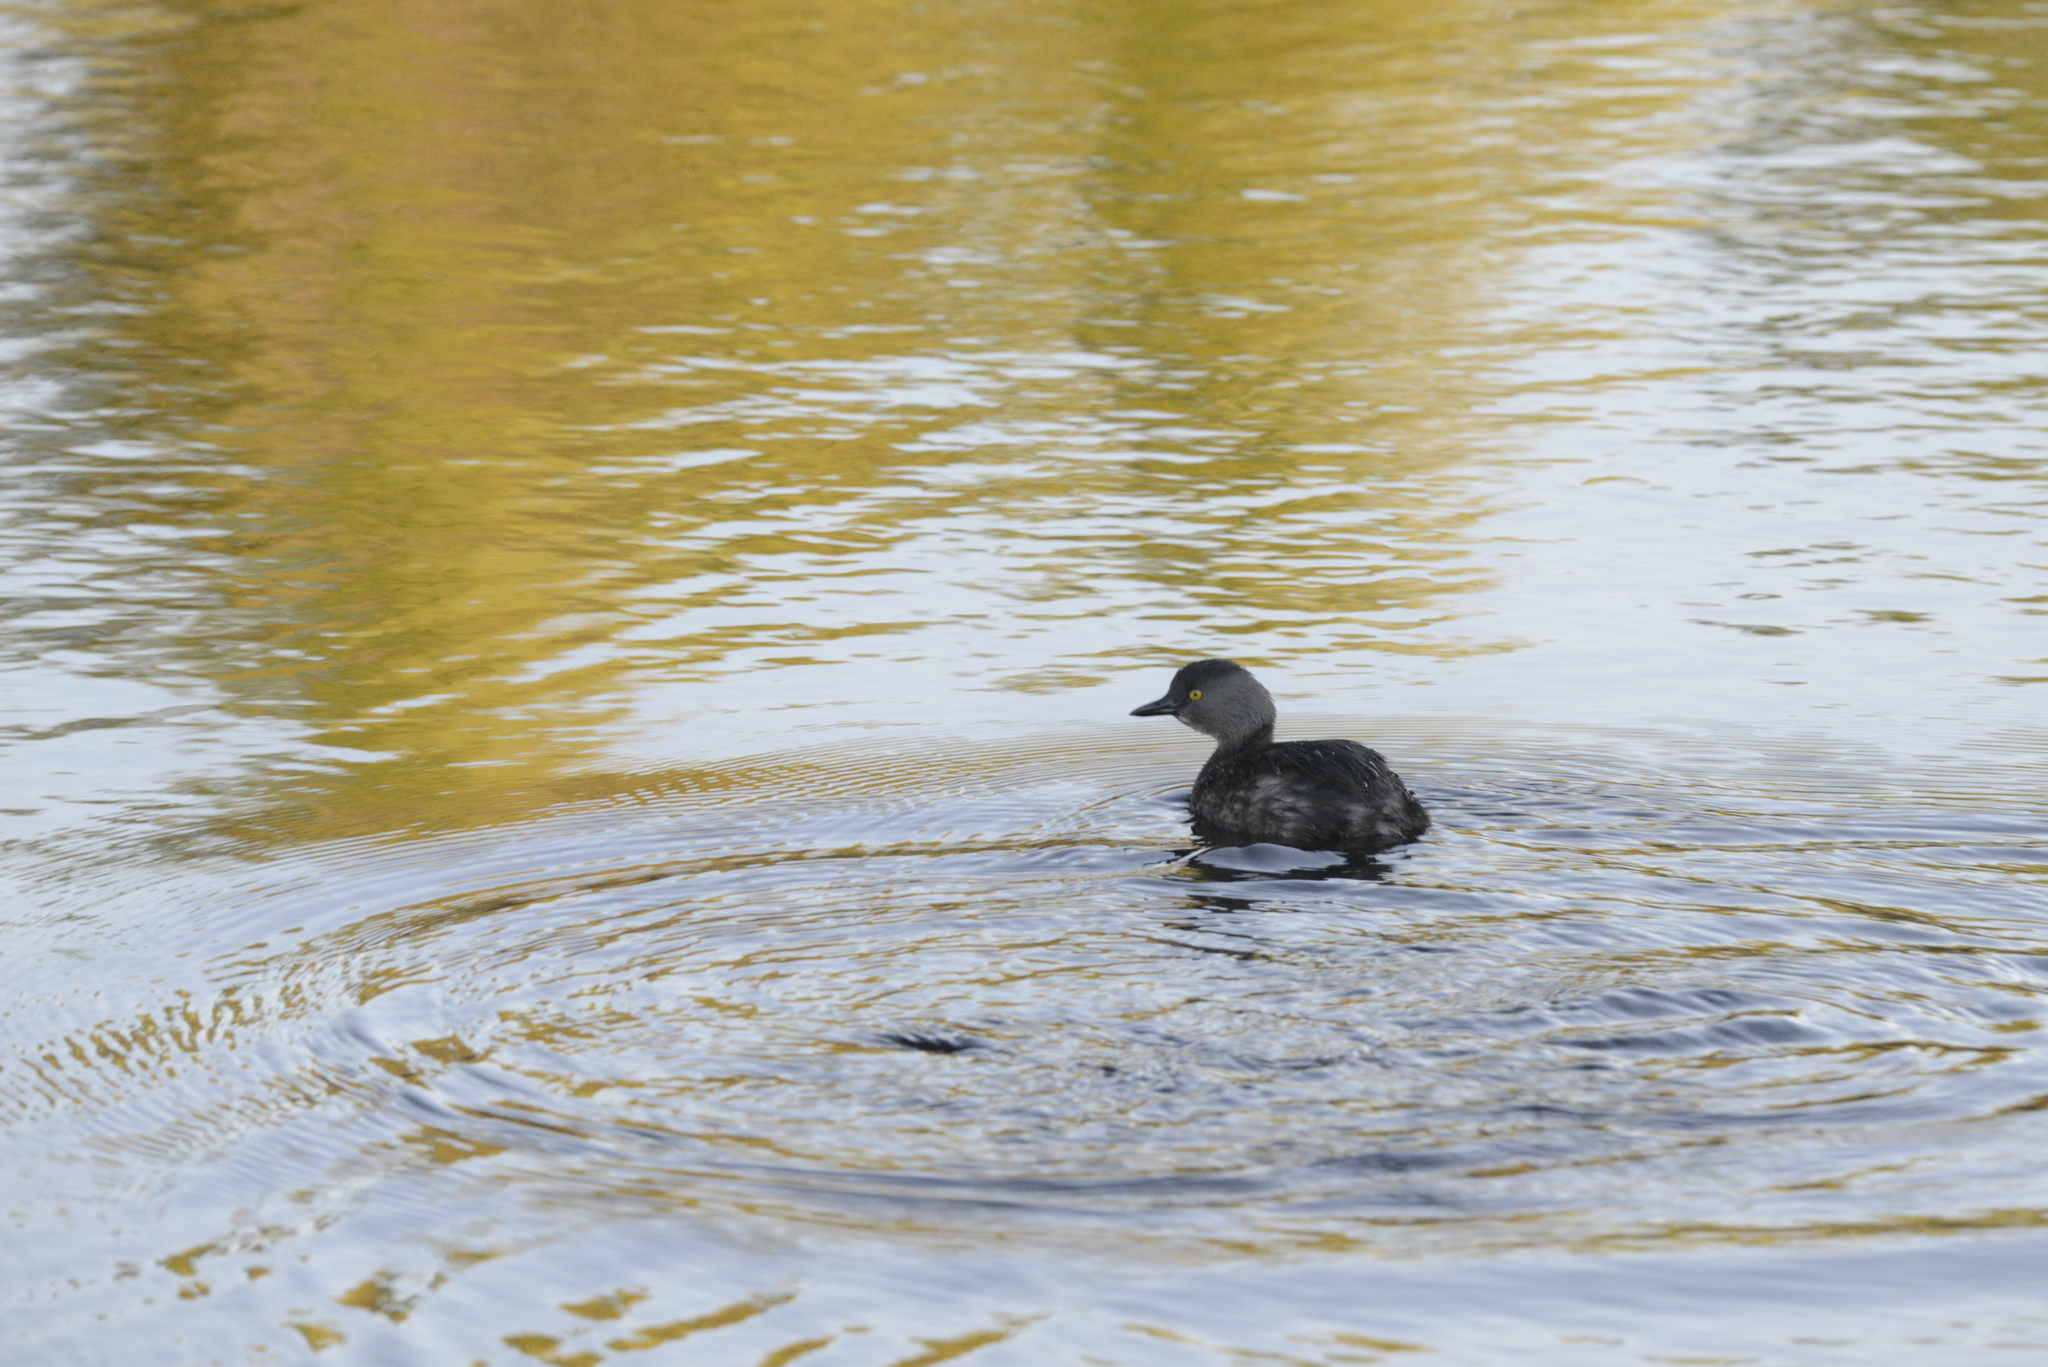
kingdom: Animalia
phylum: Chordata
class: Aves
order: Podicipediformes
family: Podicipedidae
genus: Tachybaptus
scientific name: Tachybaptus dominicus
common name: Least grebe
